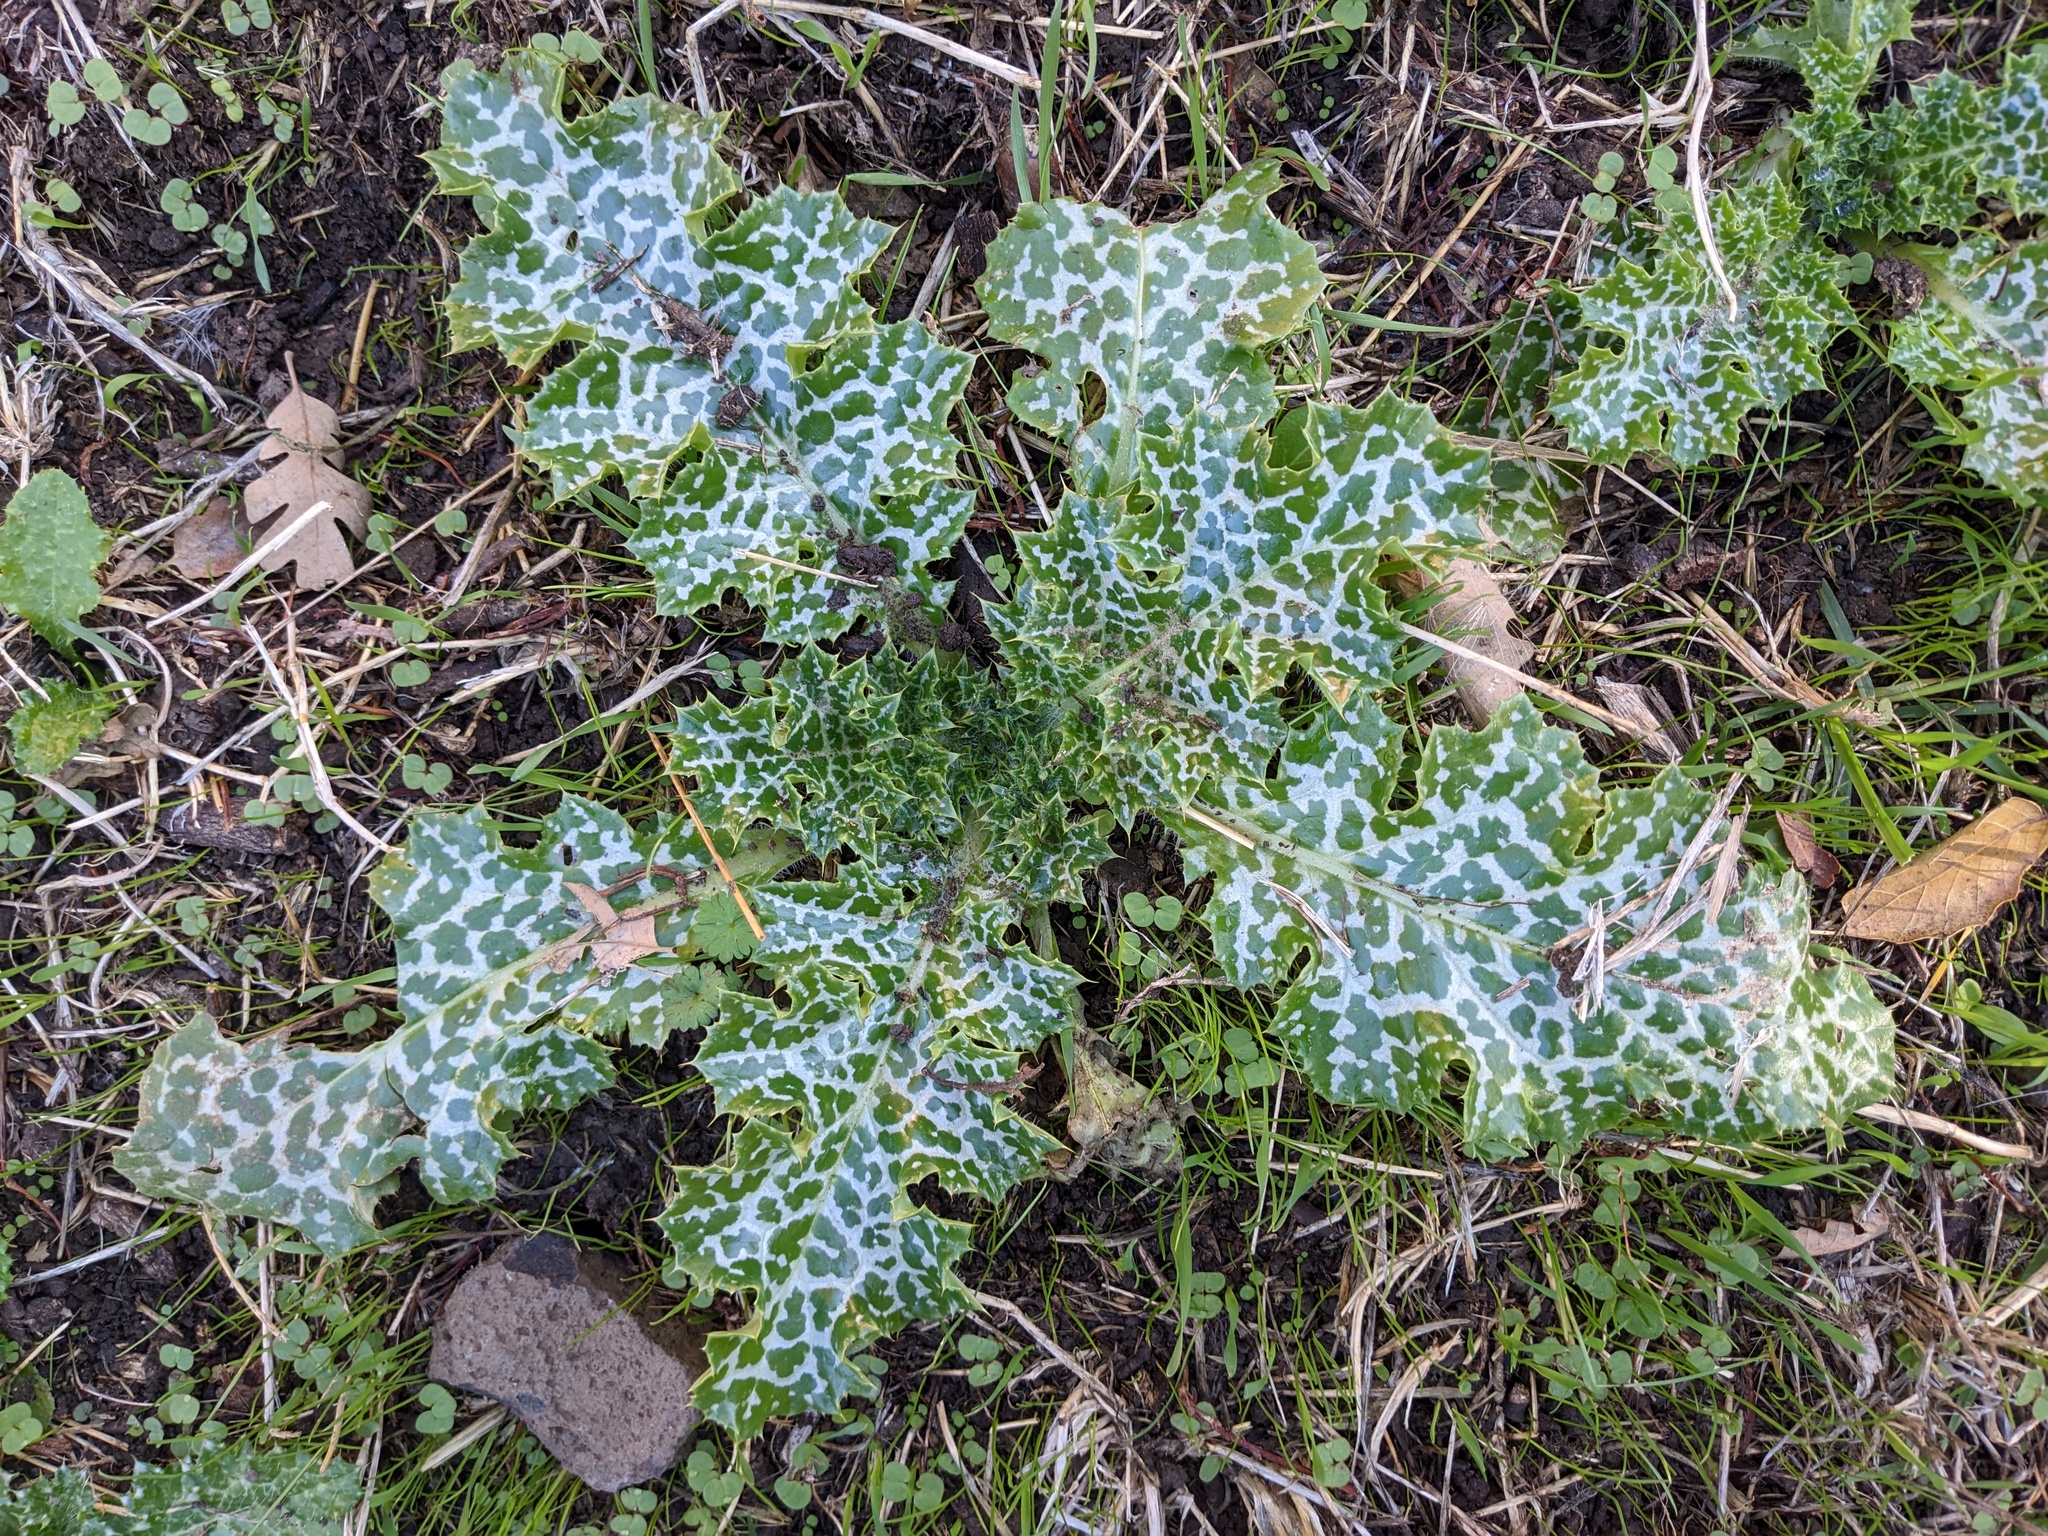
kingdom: Plantae
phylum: Tracheophyta
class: Magnoliopsida
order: Asterales
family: Asteraceae
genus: Silybum
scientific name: Silybum marianum
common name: Milk thistle
